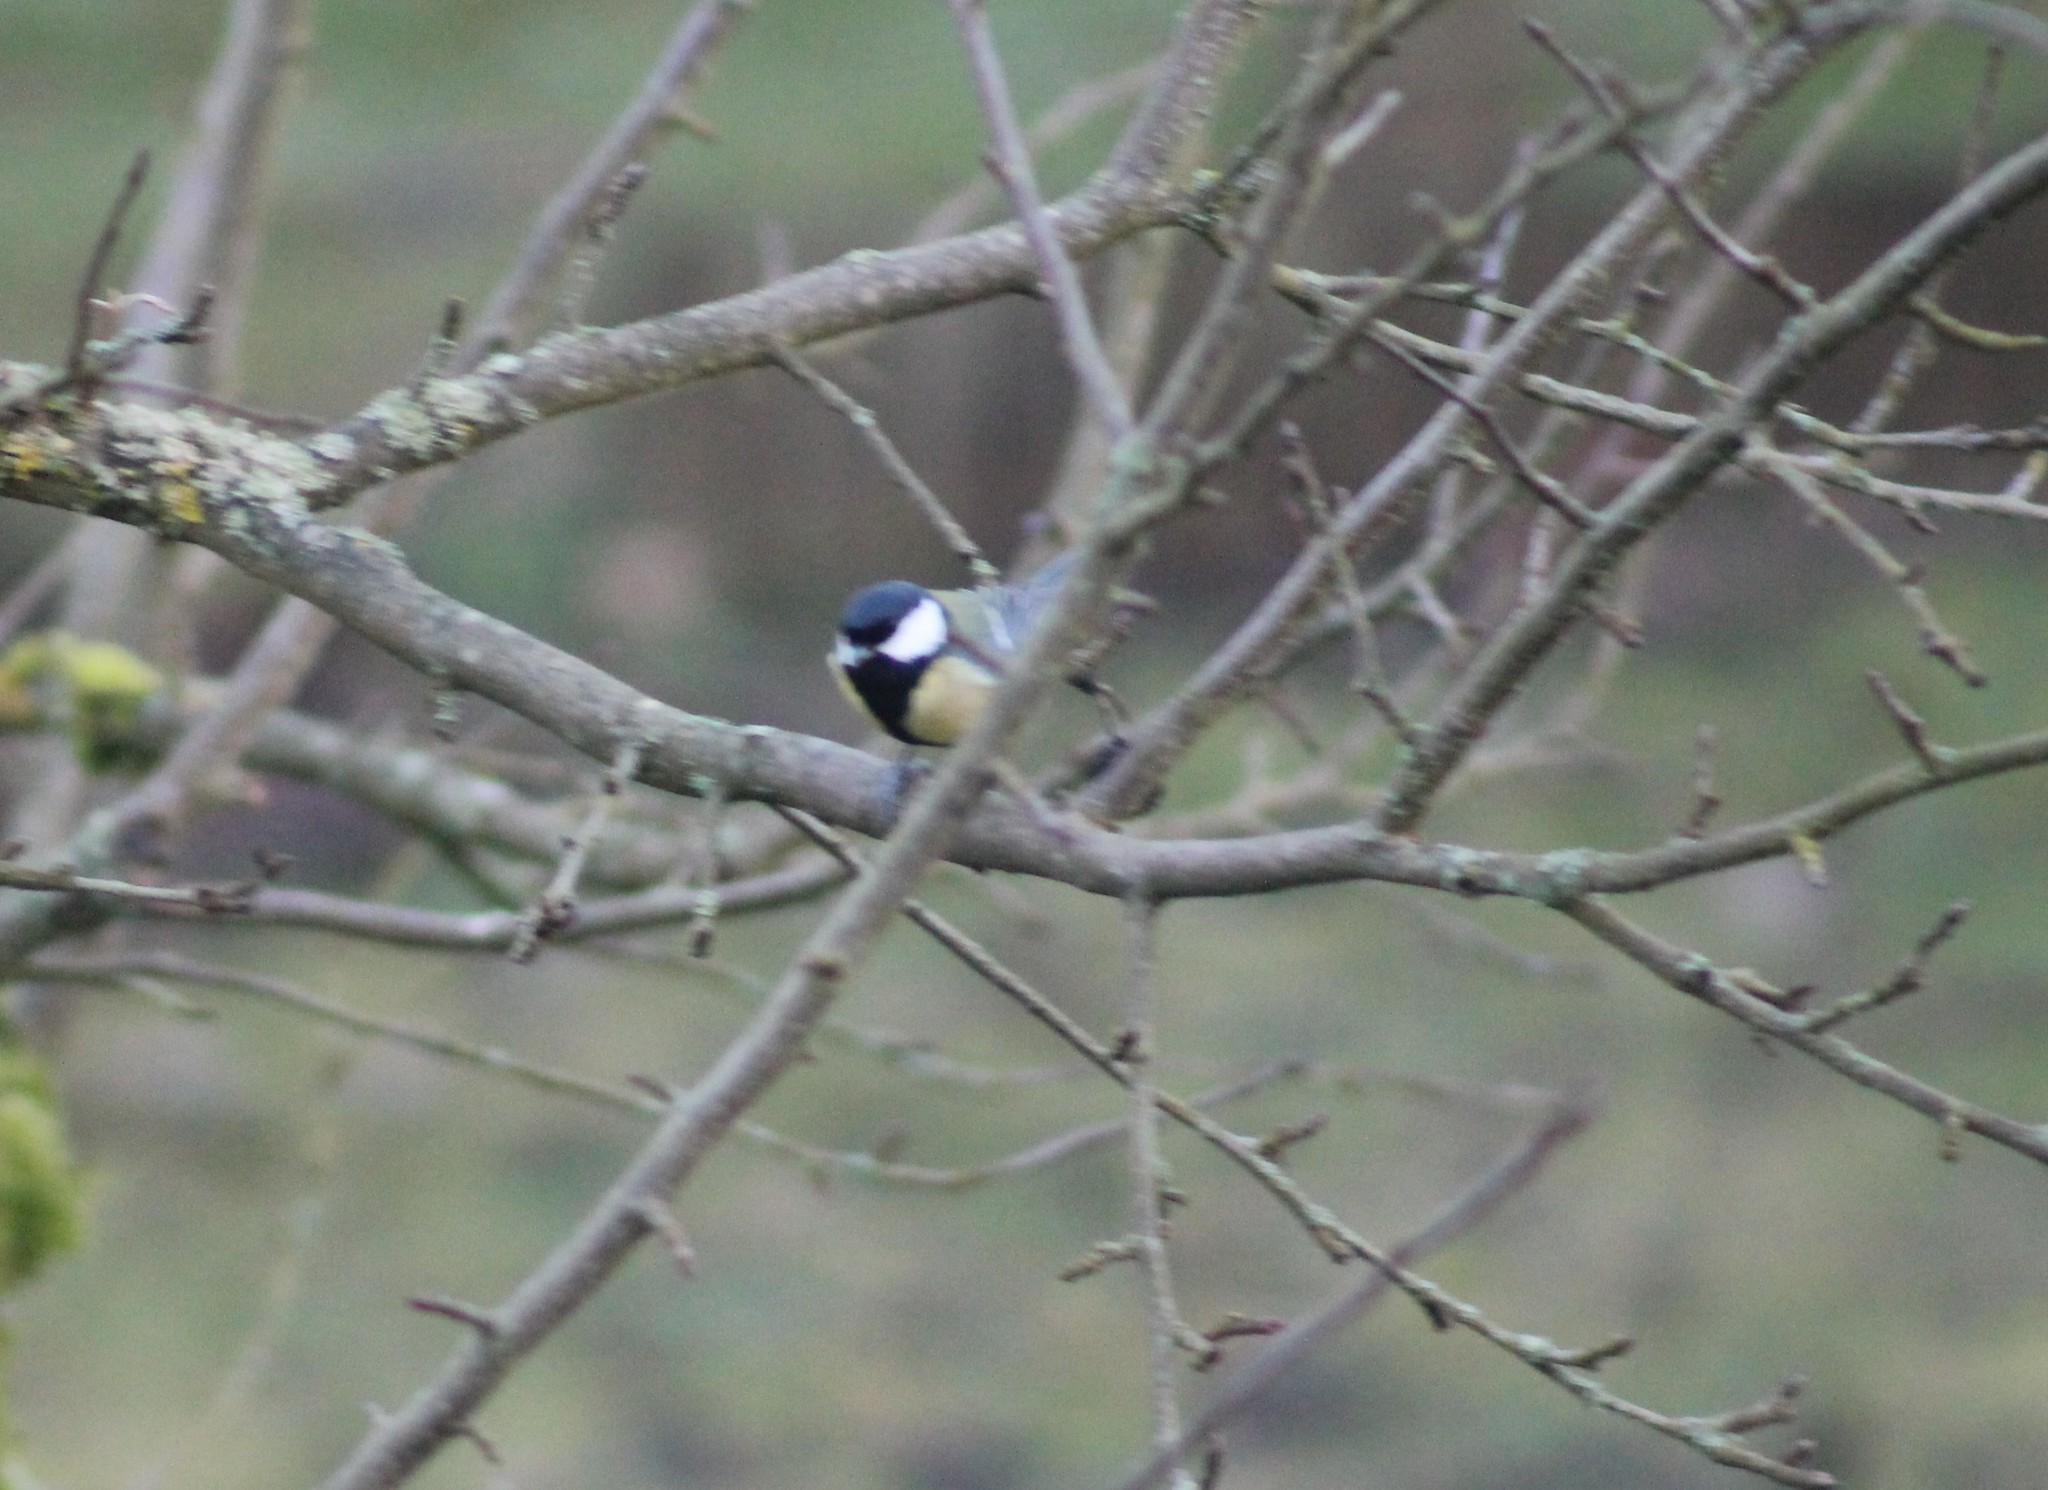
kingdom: Animalia
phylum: Chordata
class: Aves
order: Passeriformes
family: Paridae
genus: Parus
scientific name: Parus major
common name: Great tit
